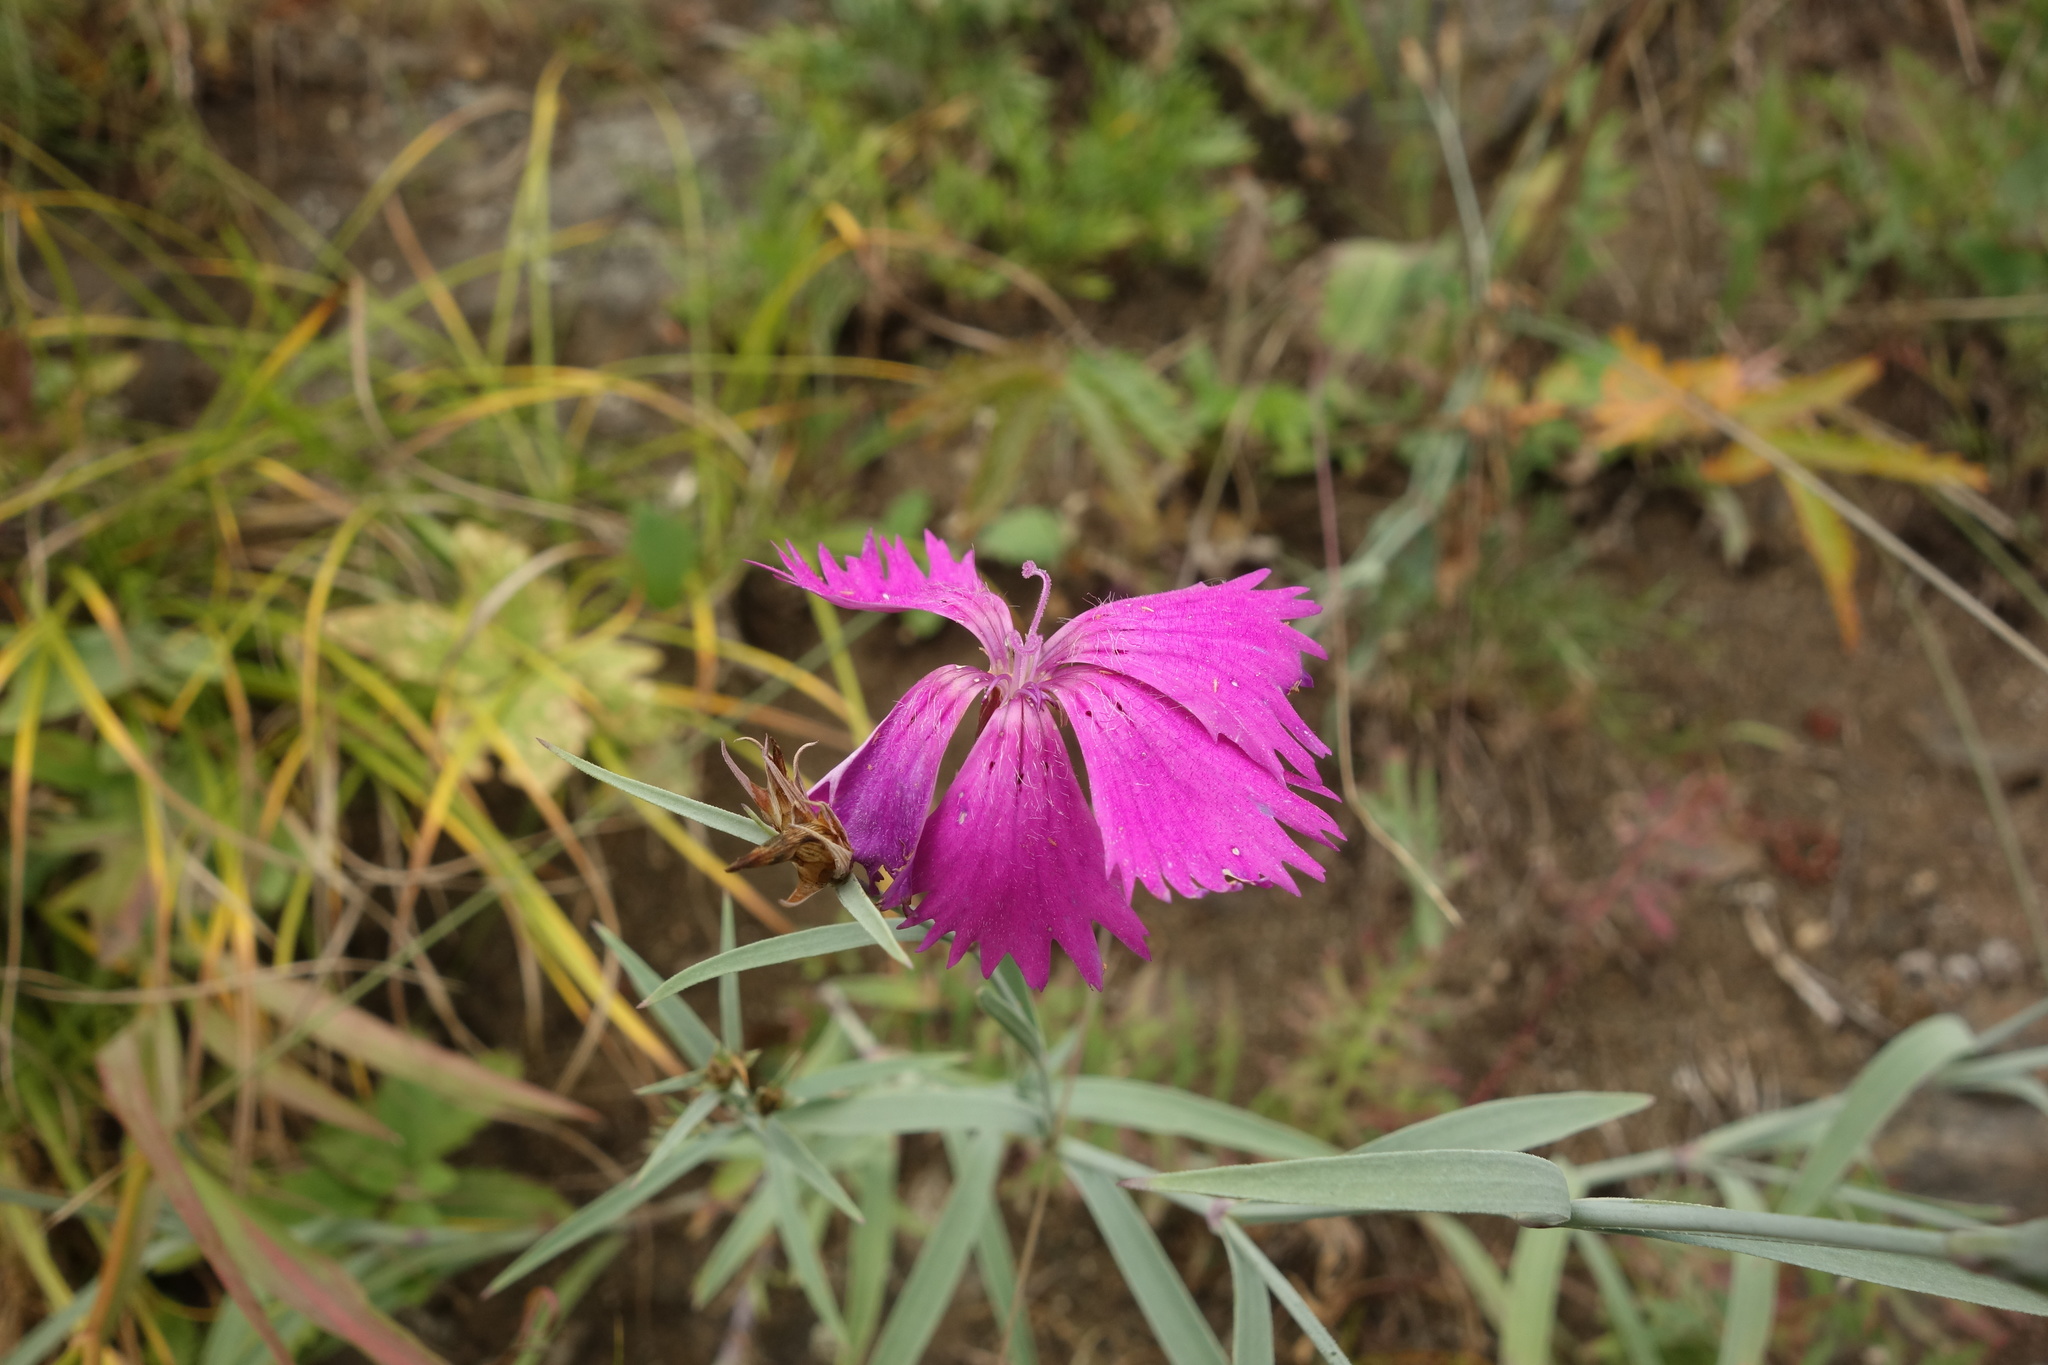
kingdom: Plantae
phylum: Tracheophyta
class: Magnoliopsida
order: Caryophyllales
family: Caryophyllaceae
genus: Dianthus
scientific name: Dianthus chinensis
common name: Rainbow pink
